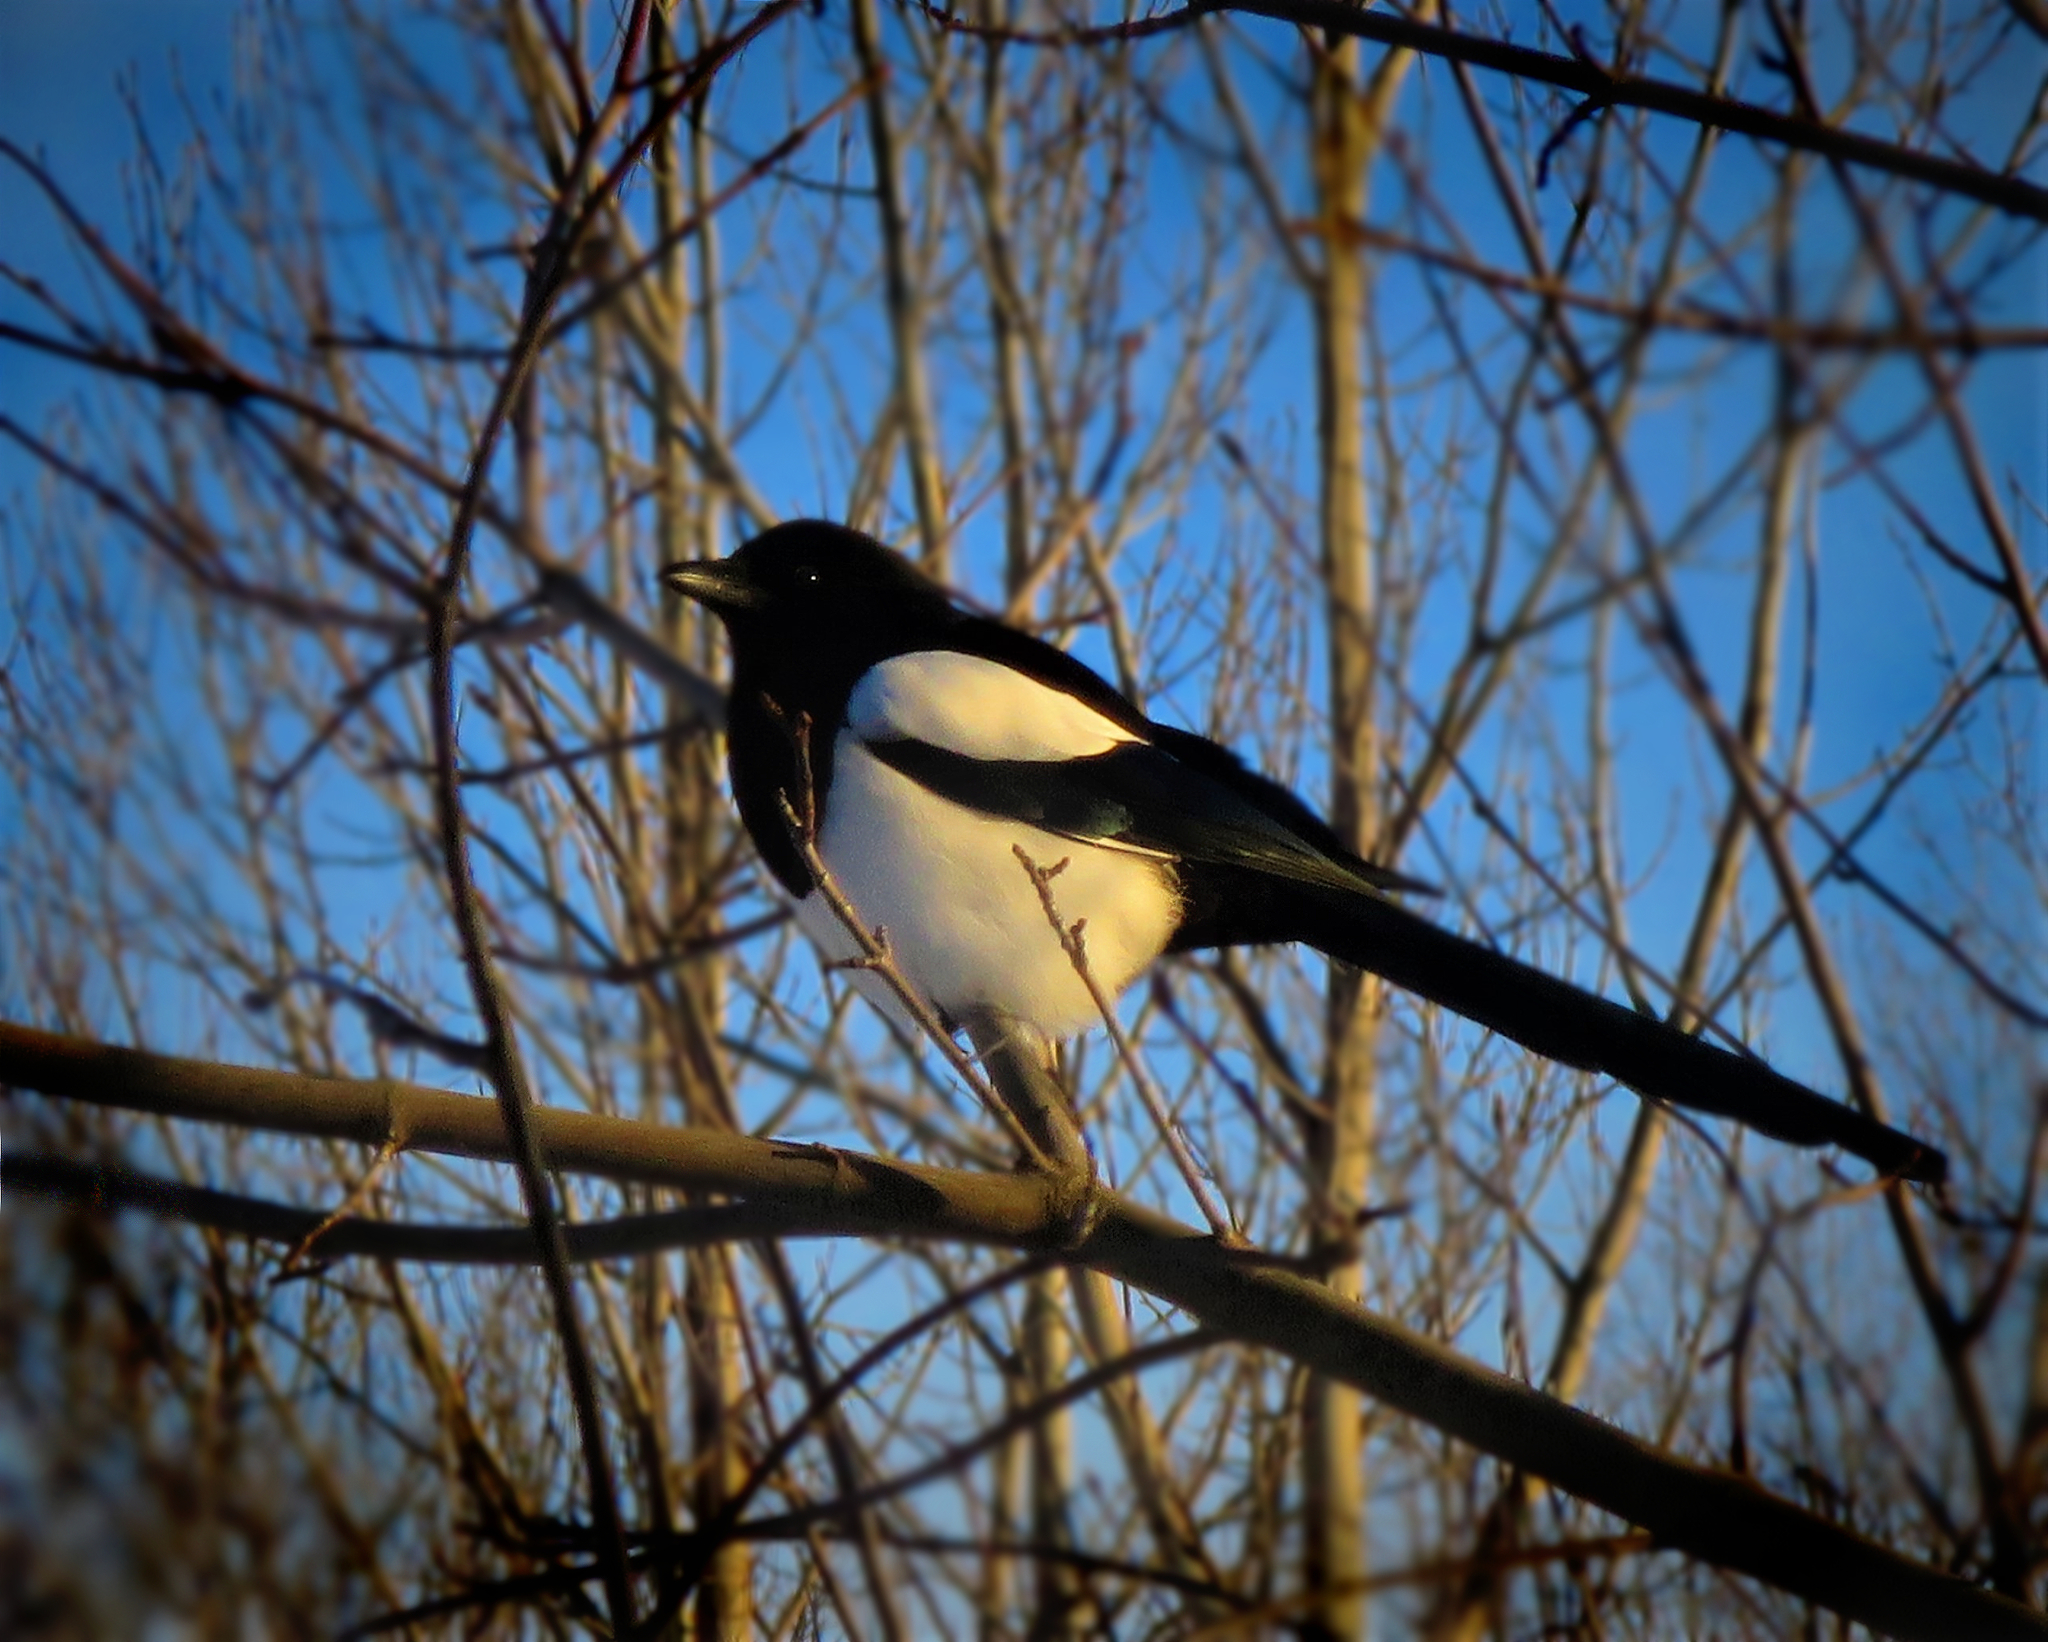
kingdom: Animalia
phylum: Chordata
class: Aves
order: Passeriformes
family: Corvidae
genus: Pica
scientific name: Pica pica
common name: Eurasian magpie
